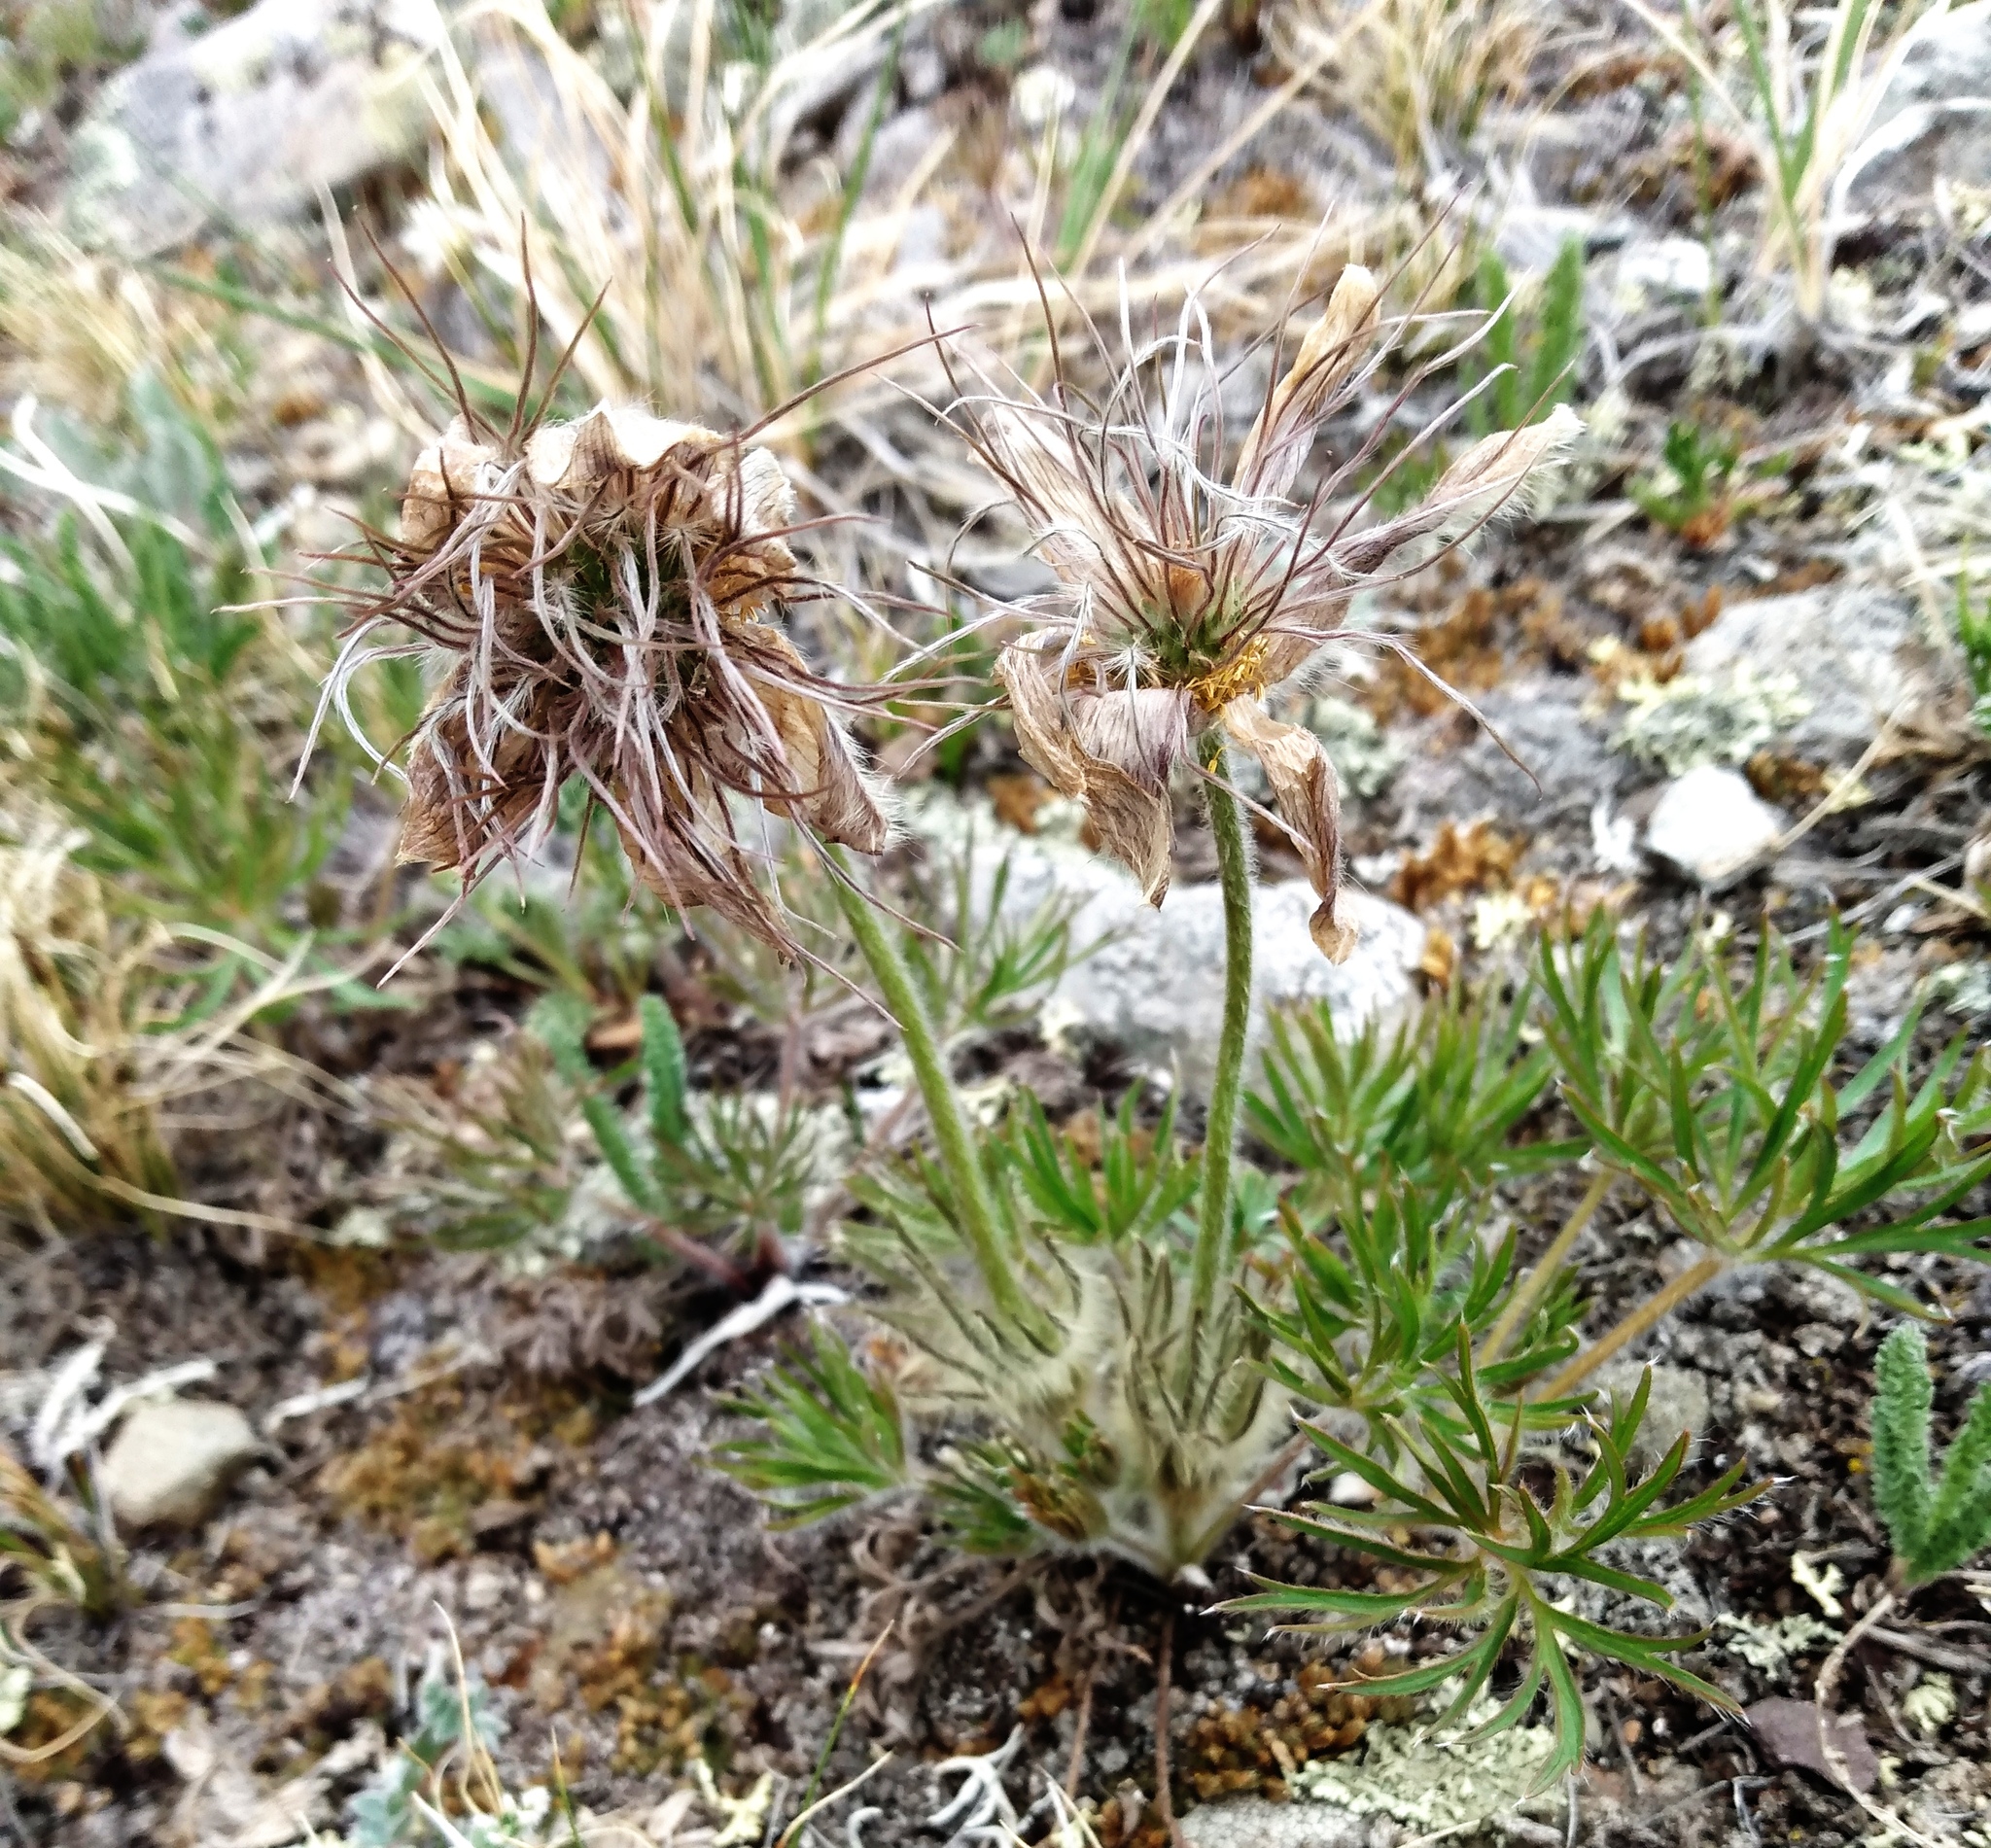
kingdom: Plantae
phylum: Tracheophyta
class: Magnoliopsida
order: Ranunculales
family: Ranunculaceae
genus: Pulsatilla
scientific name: Pulsatilla nuttalliana
